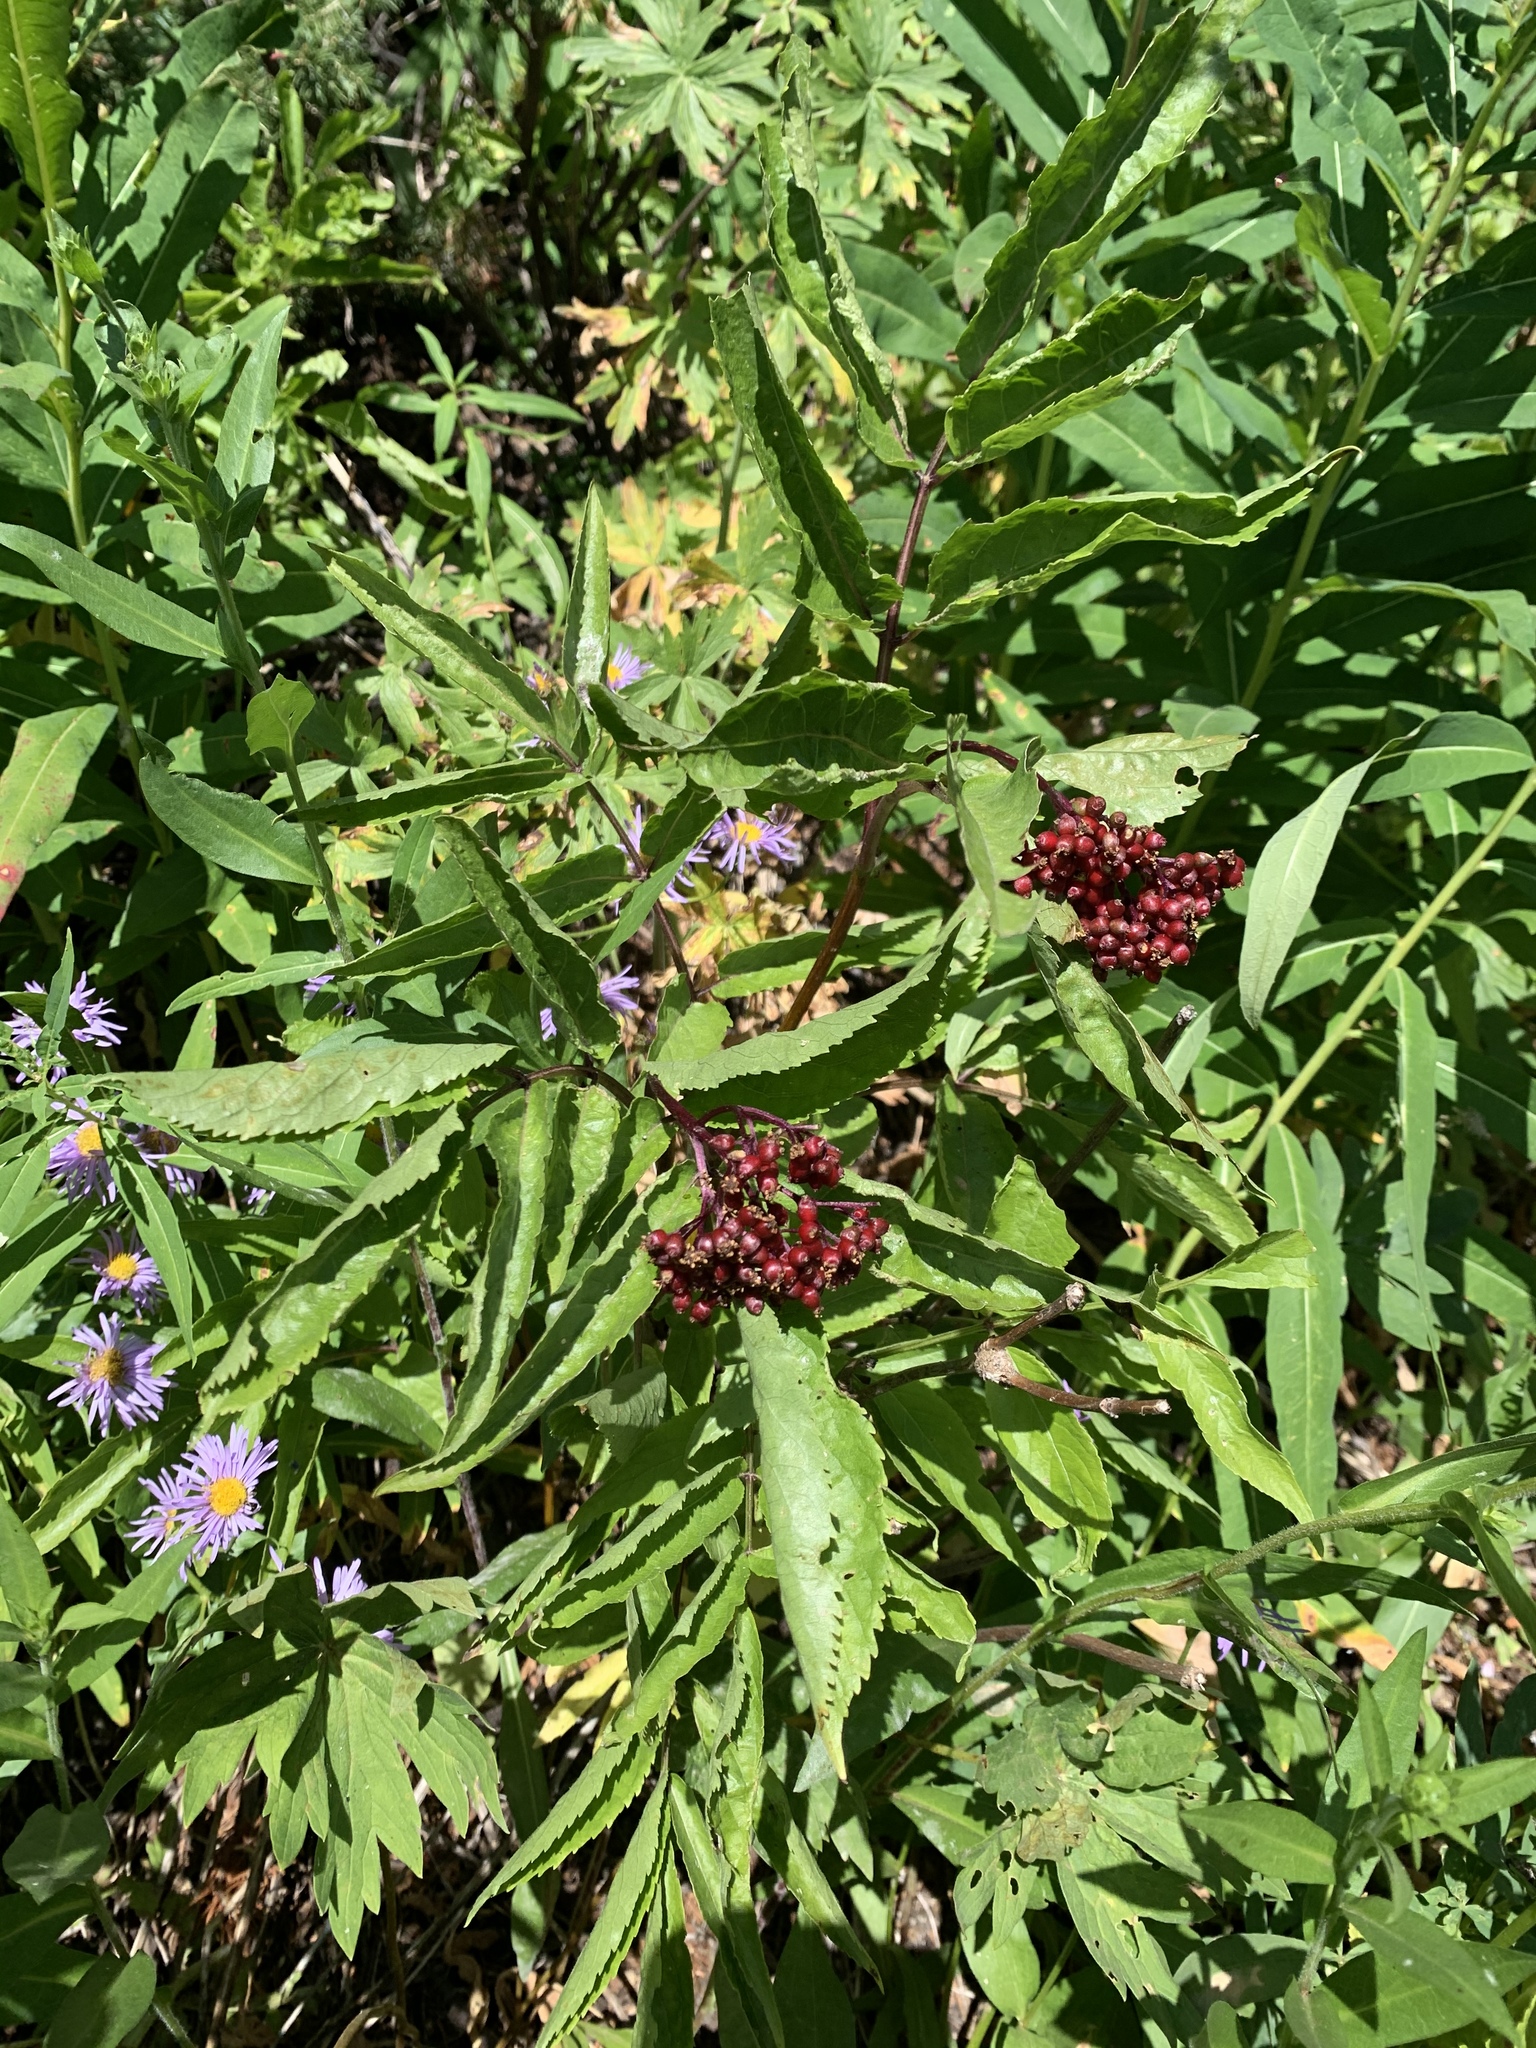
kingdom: Plantae
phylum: Tracheophyta
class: Magnoliopsida
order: Dipsacales
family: Viburnaceae
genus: Sambucus
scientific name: Sambucus racemosa
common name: Red-berried elder
